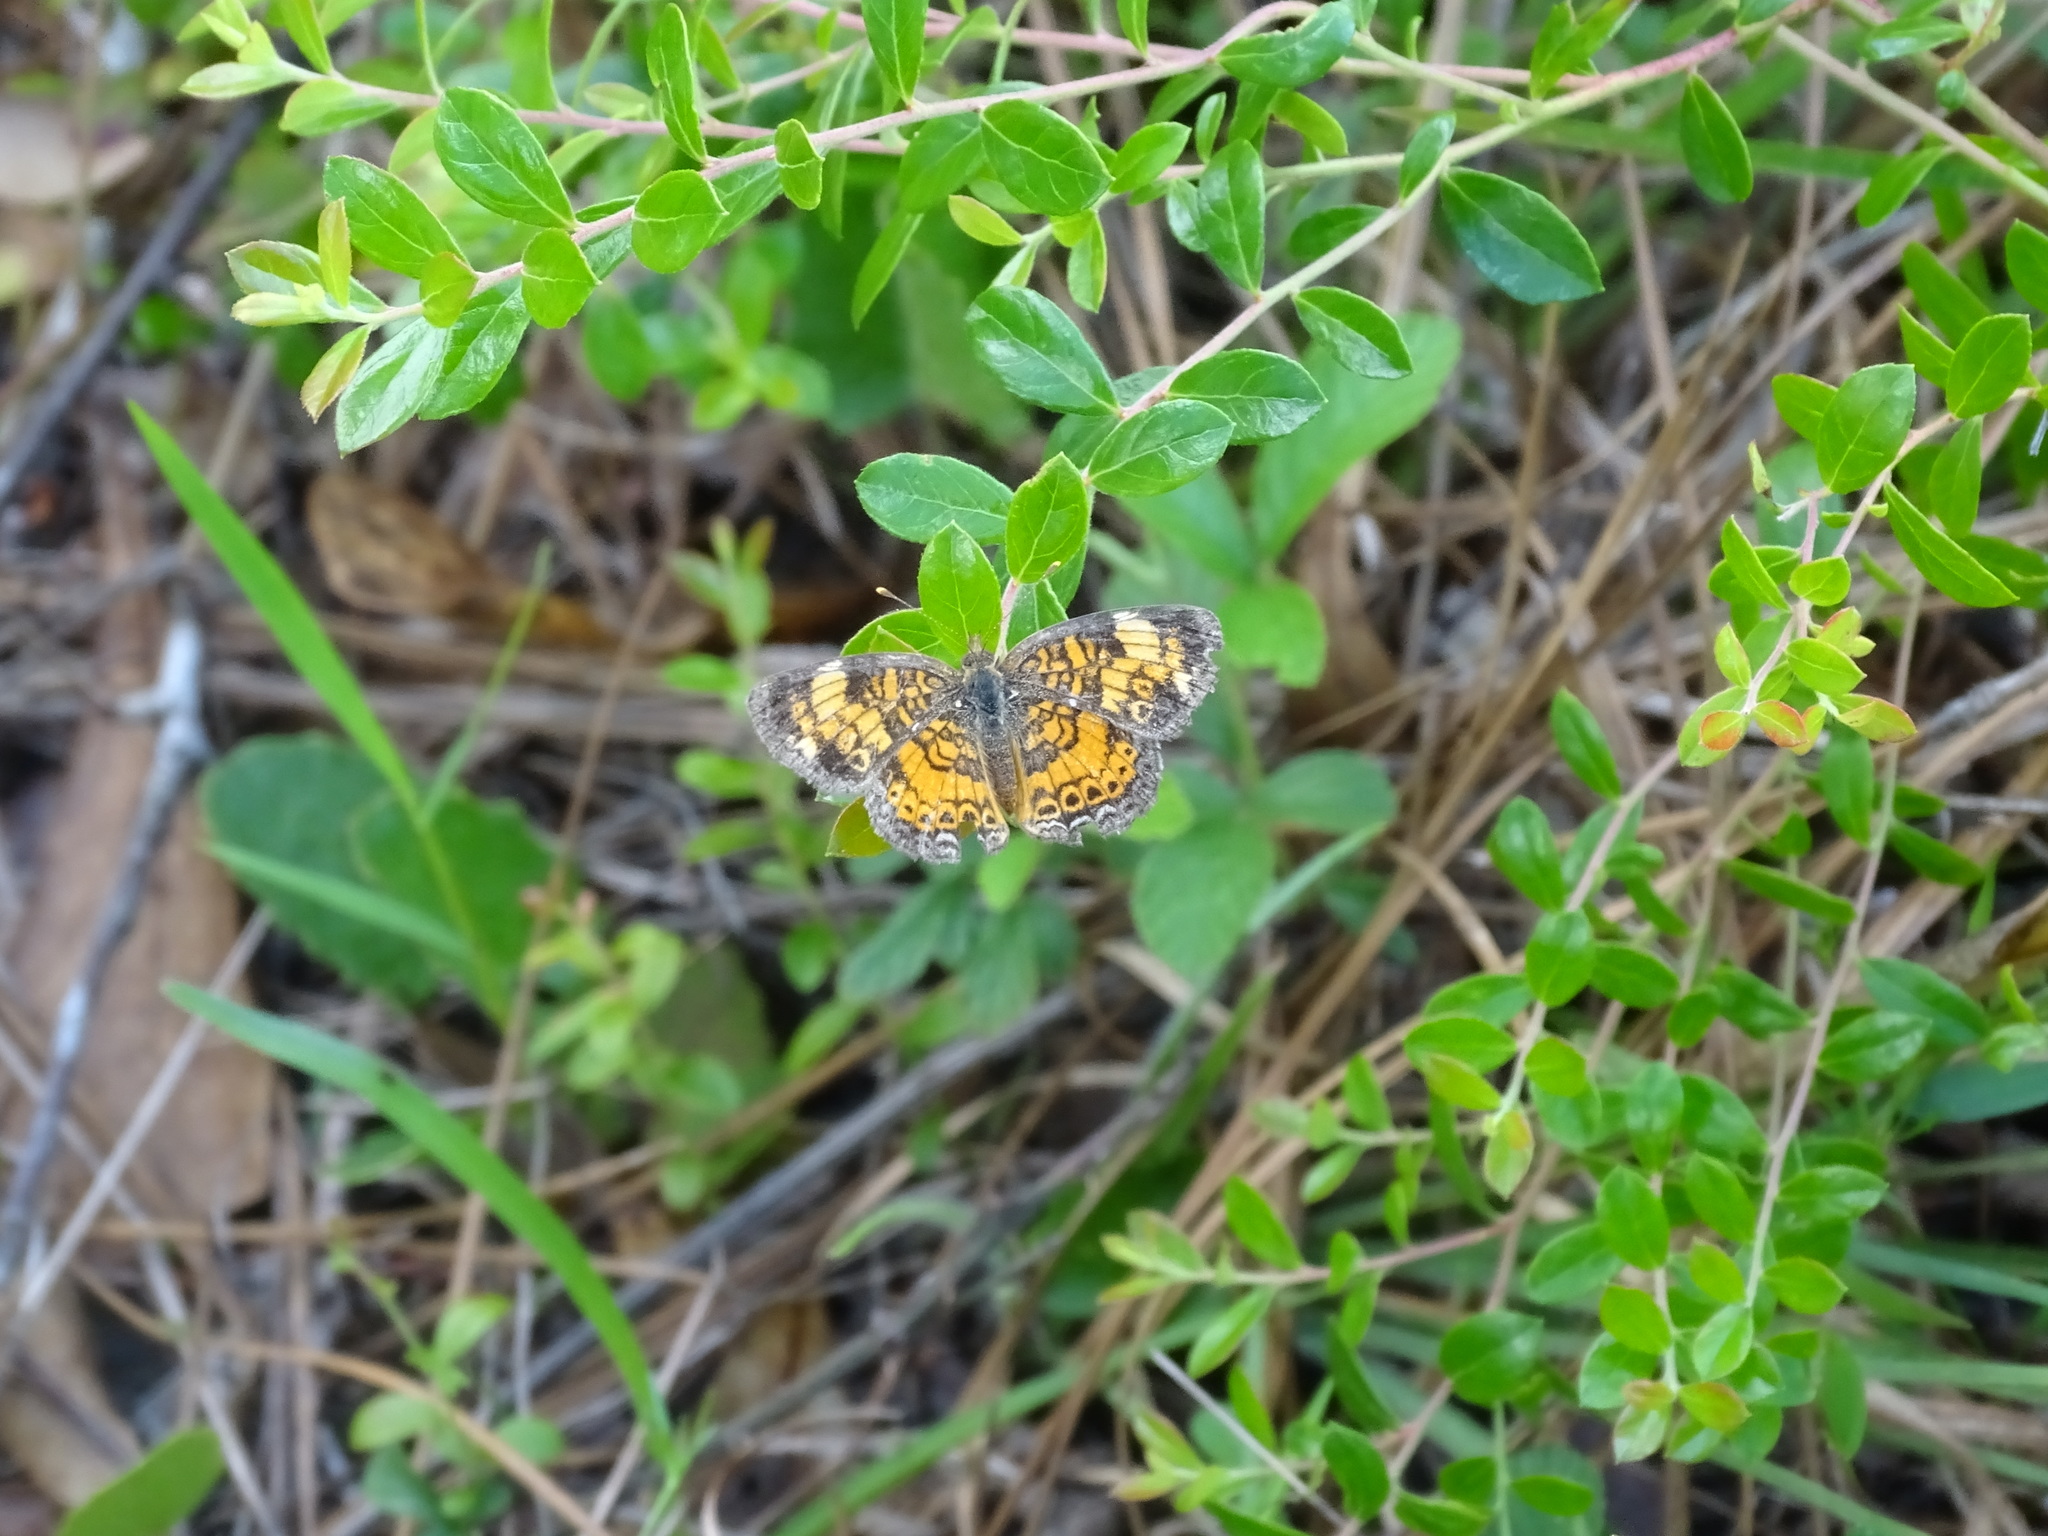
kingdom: Animalia
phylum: Arthropoda
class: Insecta
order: Lepidoptera
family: Nymphalidae
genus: Phyciodes
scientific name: Phyciodes tharos
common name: Pearl crescent
